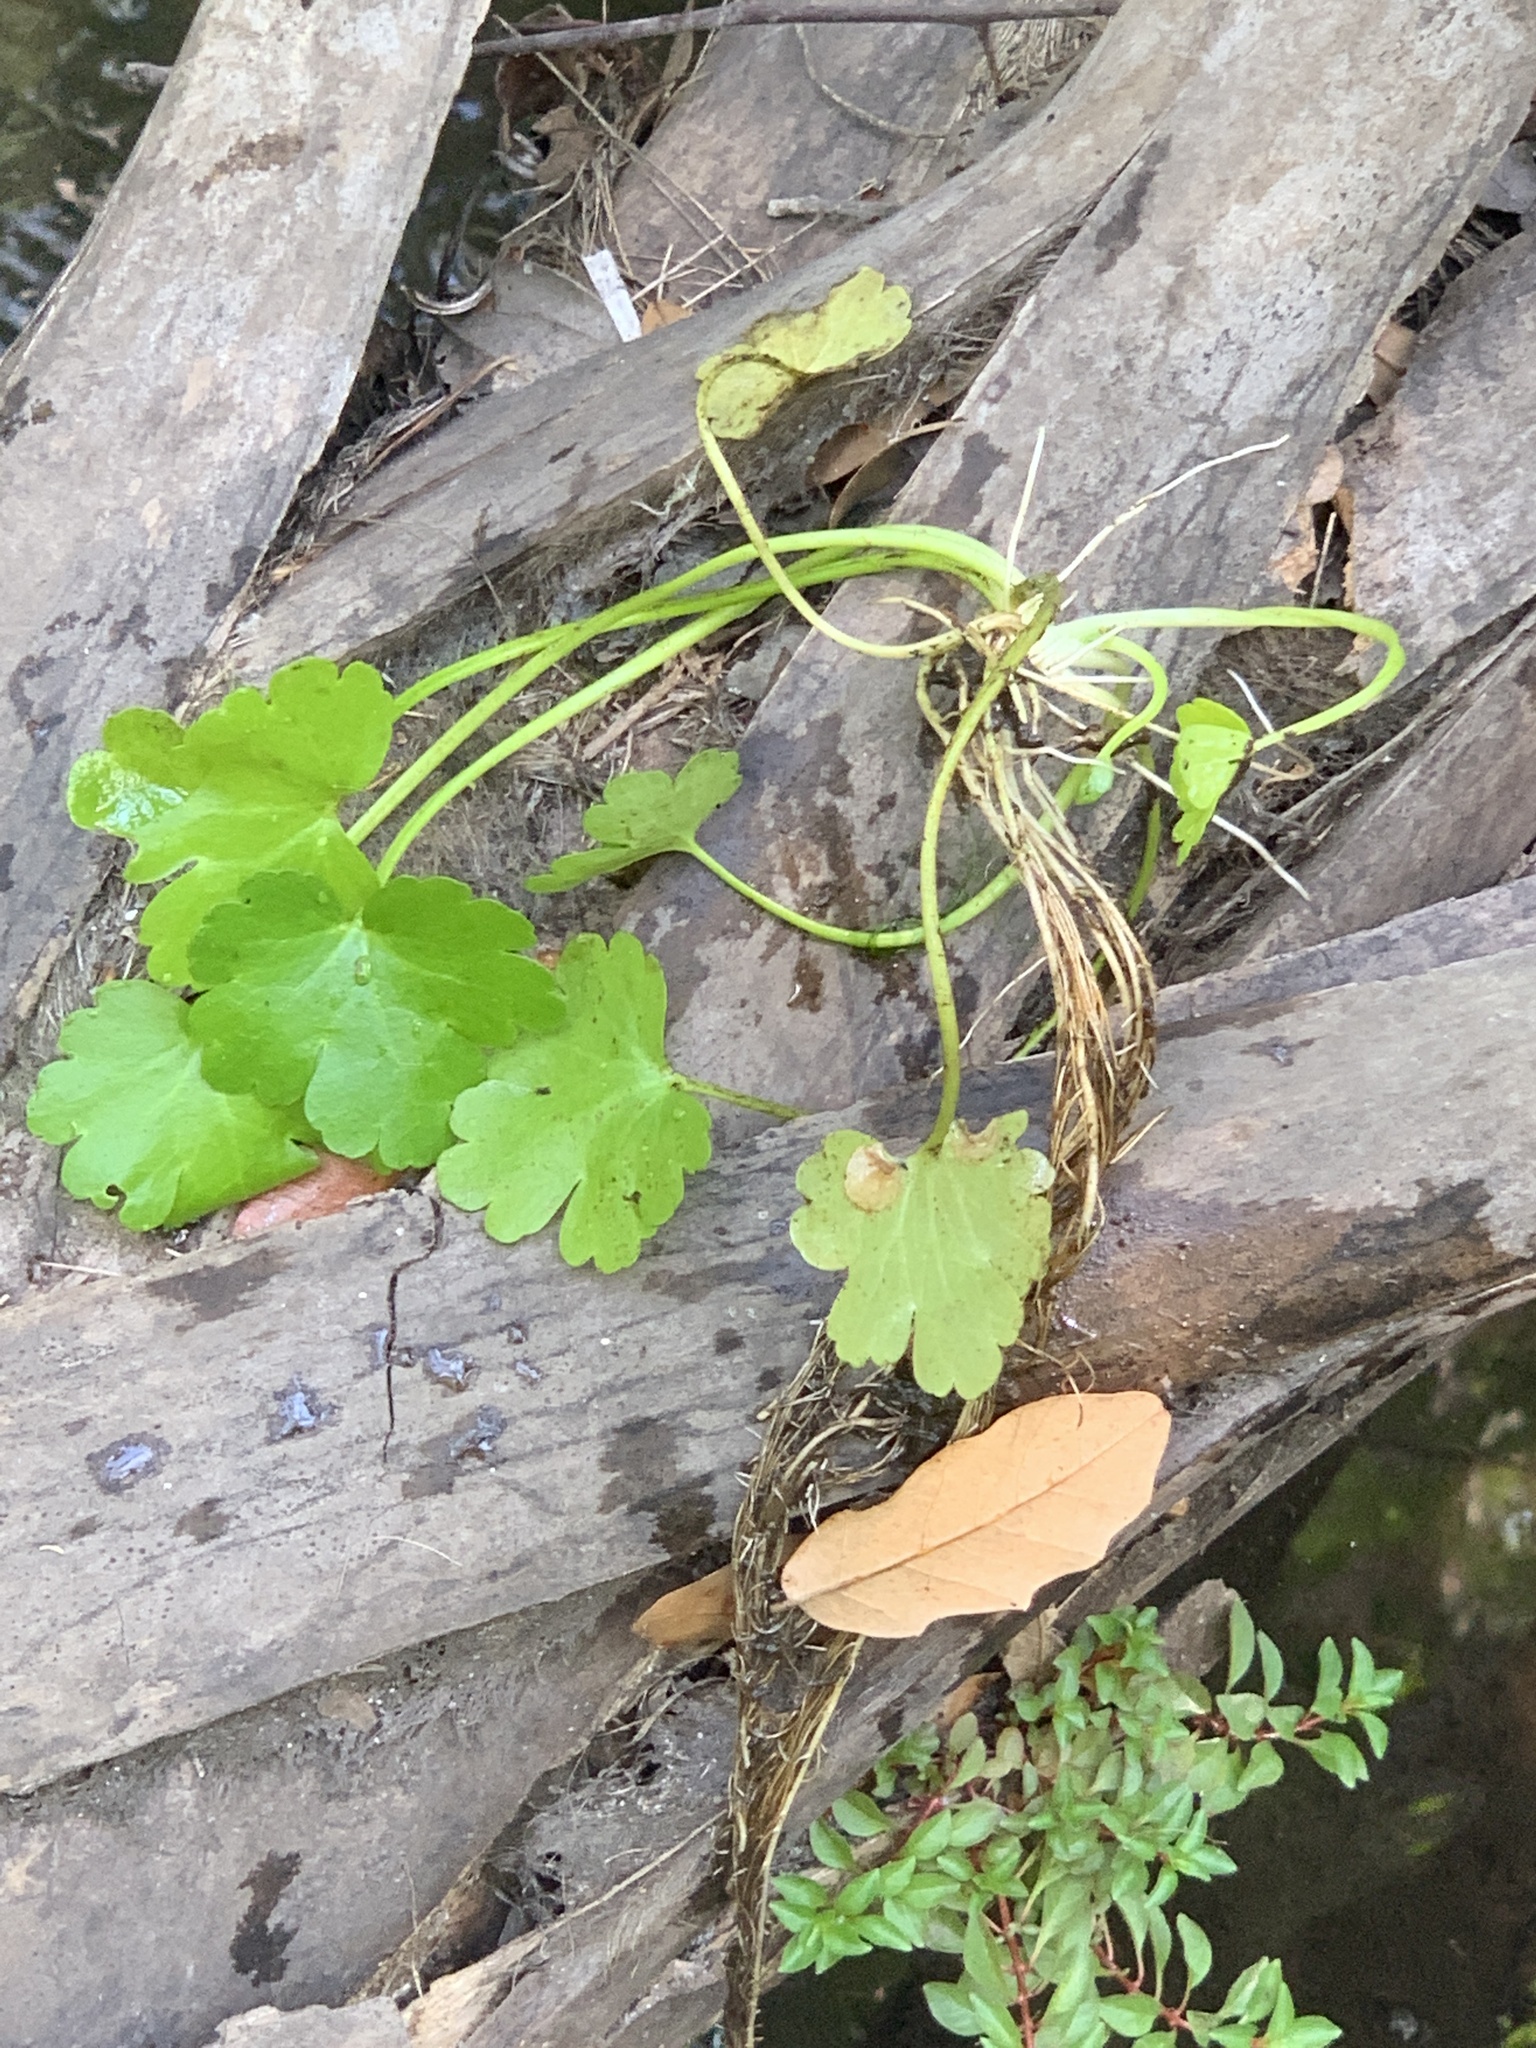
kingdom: Plantae
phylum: Tracheophyta
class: Magnoliopsida
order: Ranunculales
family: Ranunculaceae
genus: Ranunculus
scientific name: Ranunculus sceleratus
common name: Celery-leaved buttercup
